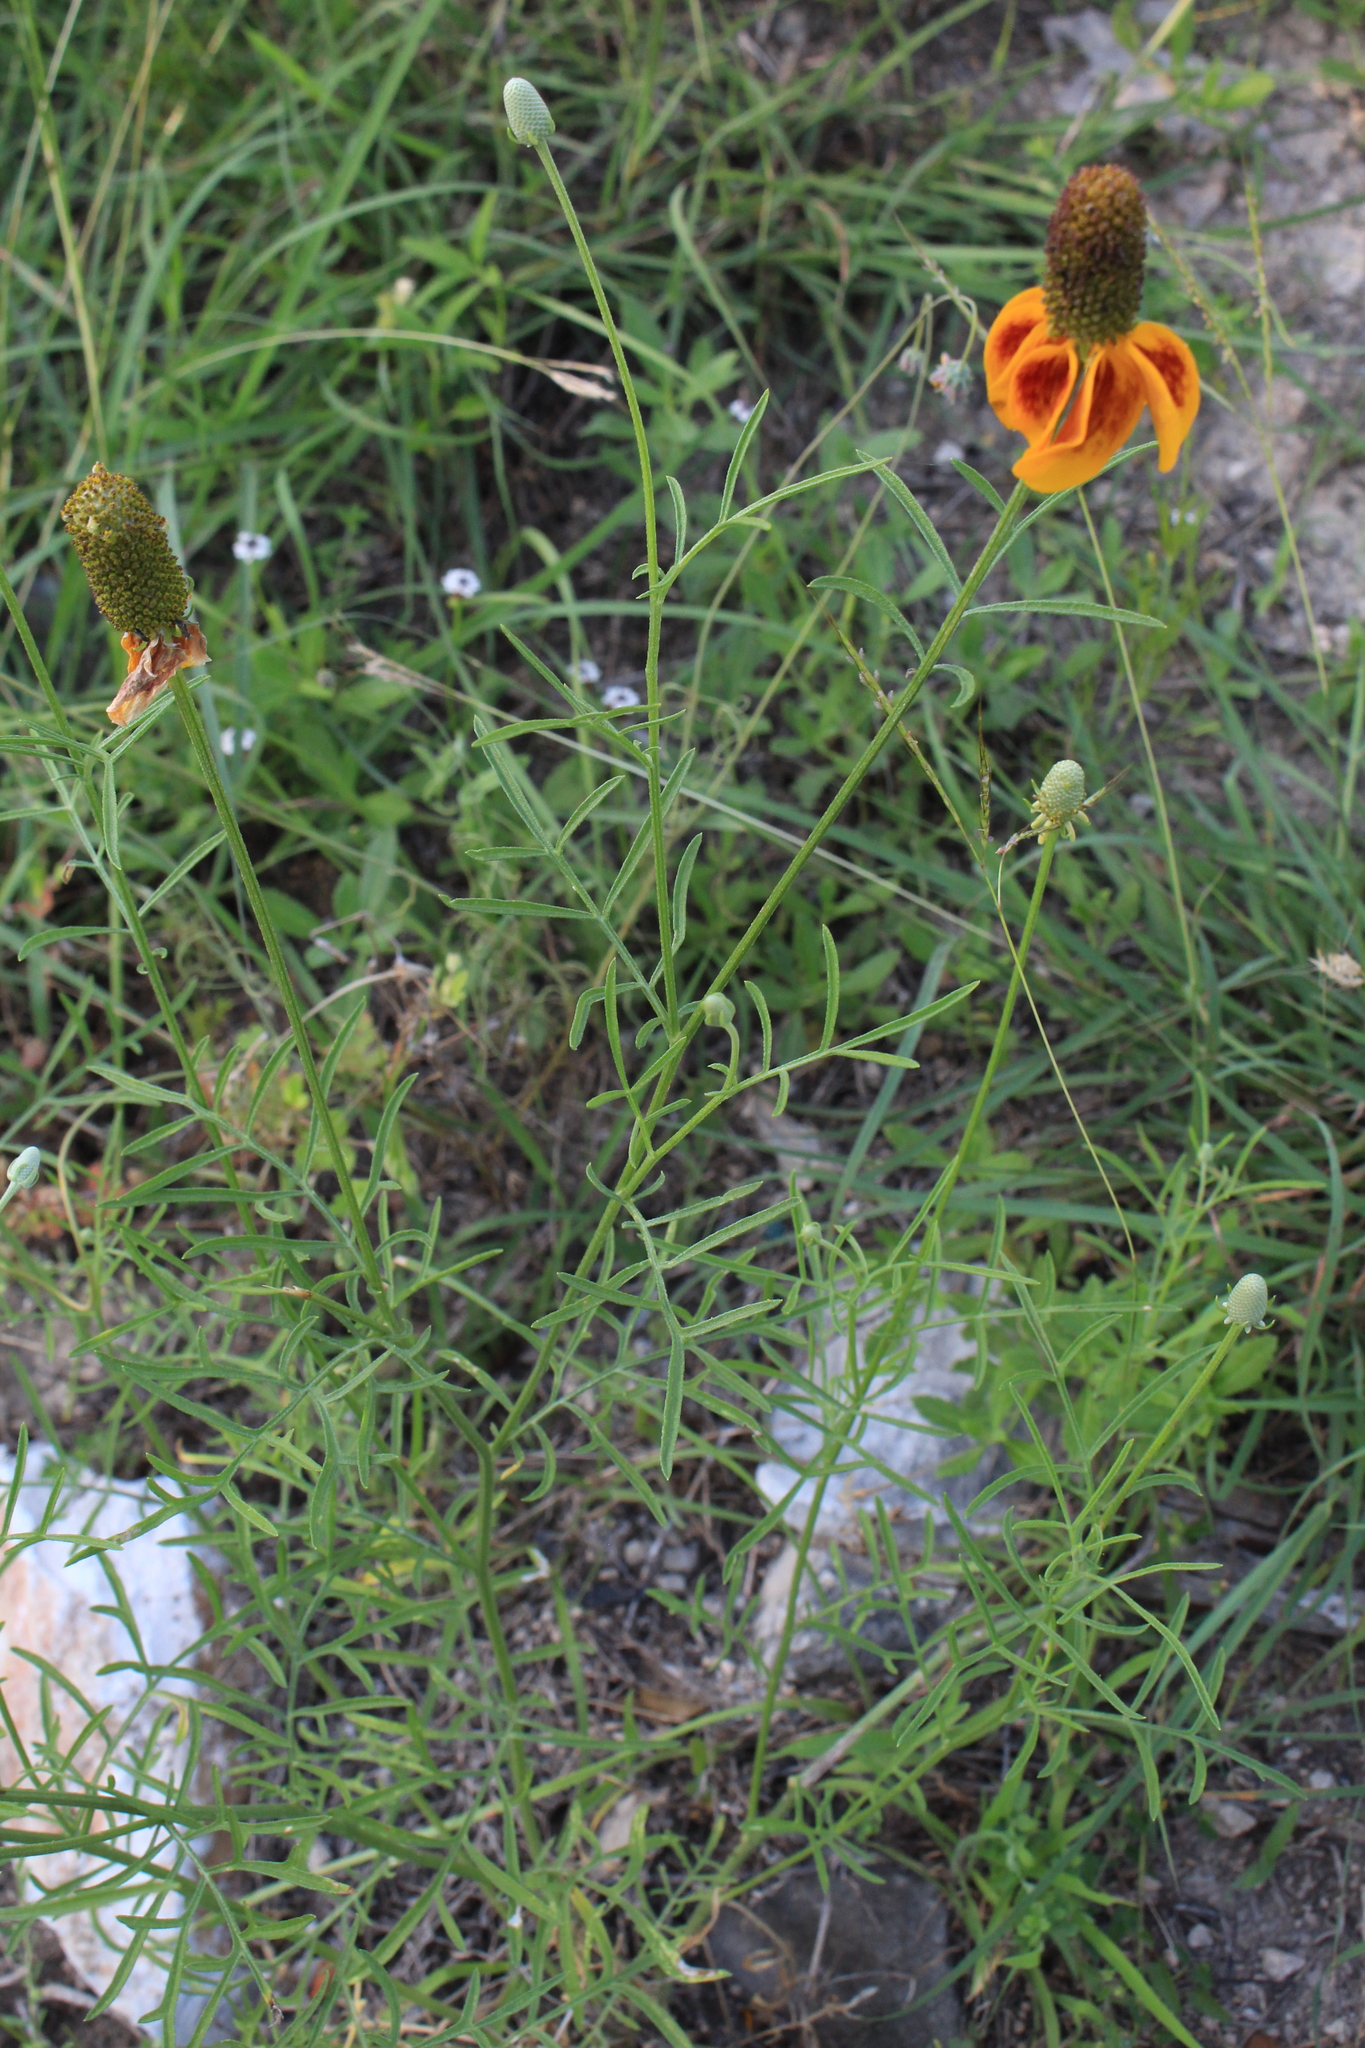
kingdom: Plantae
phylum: Tracheophyta
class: Magnoliopsida
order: Asterales
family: Asteraceae
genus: Ratibida
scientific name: Ratibida columnifera
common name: Prairie coneflower
